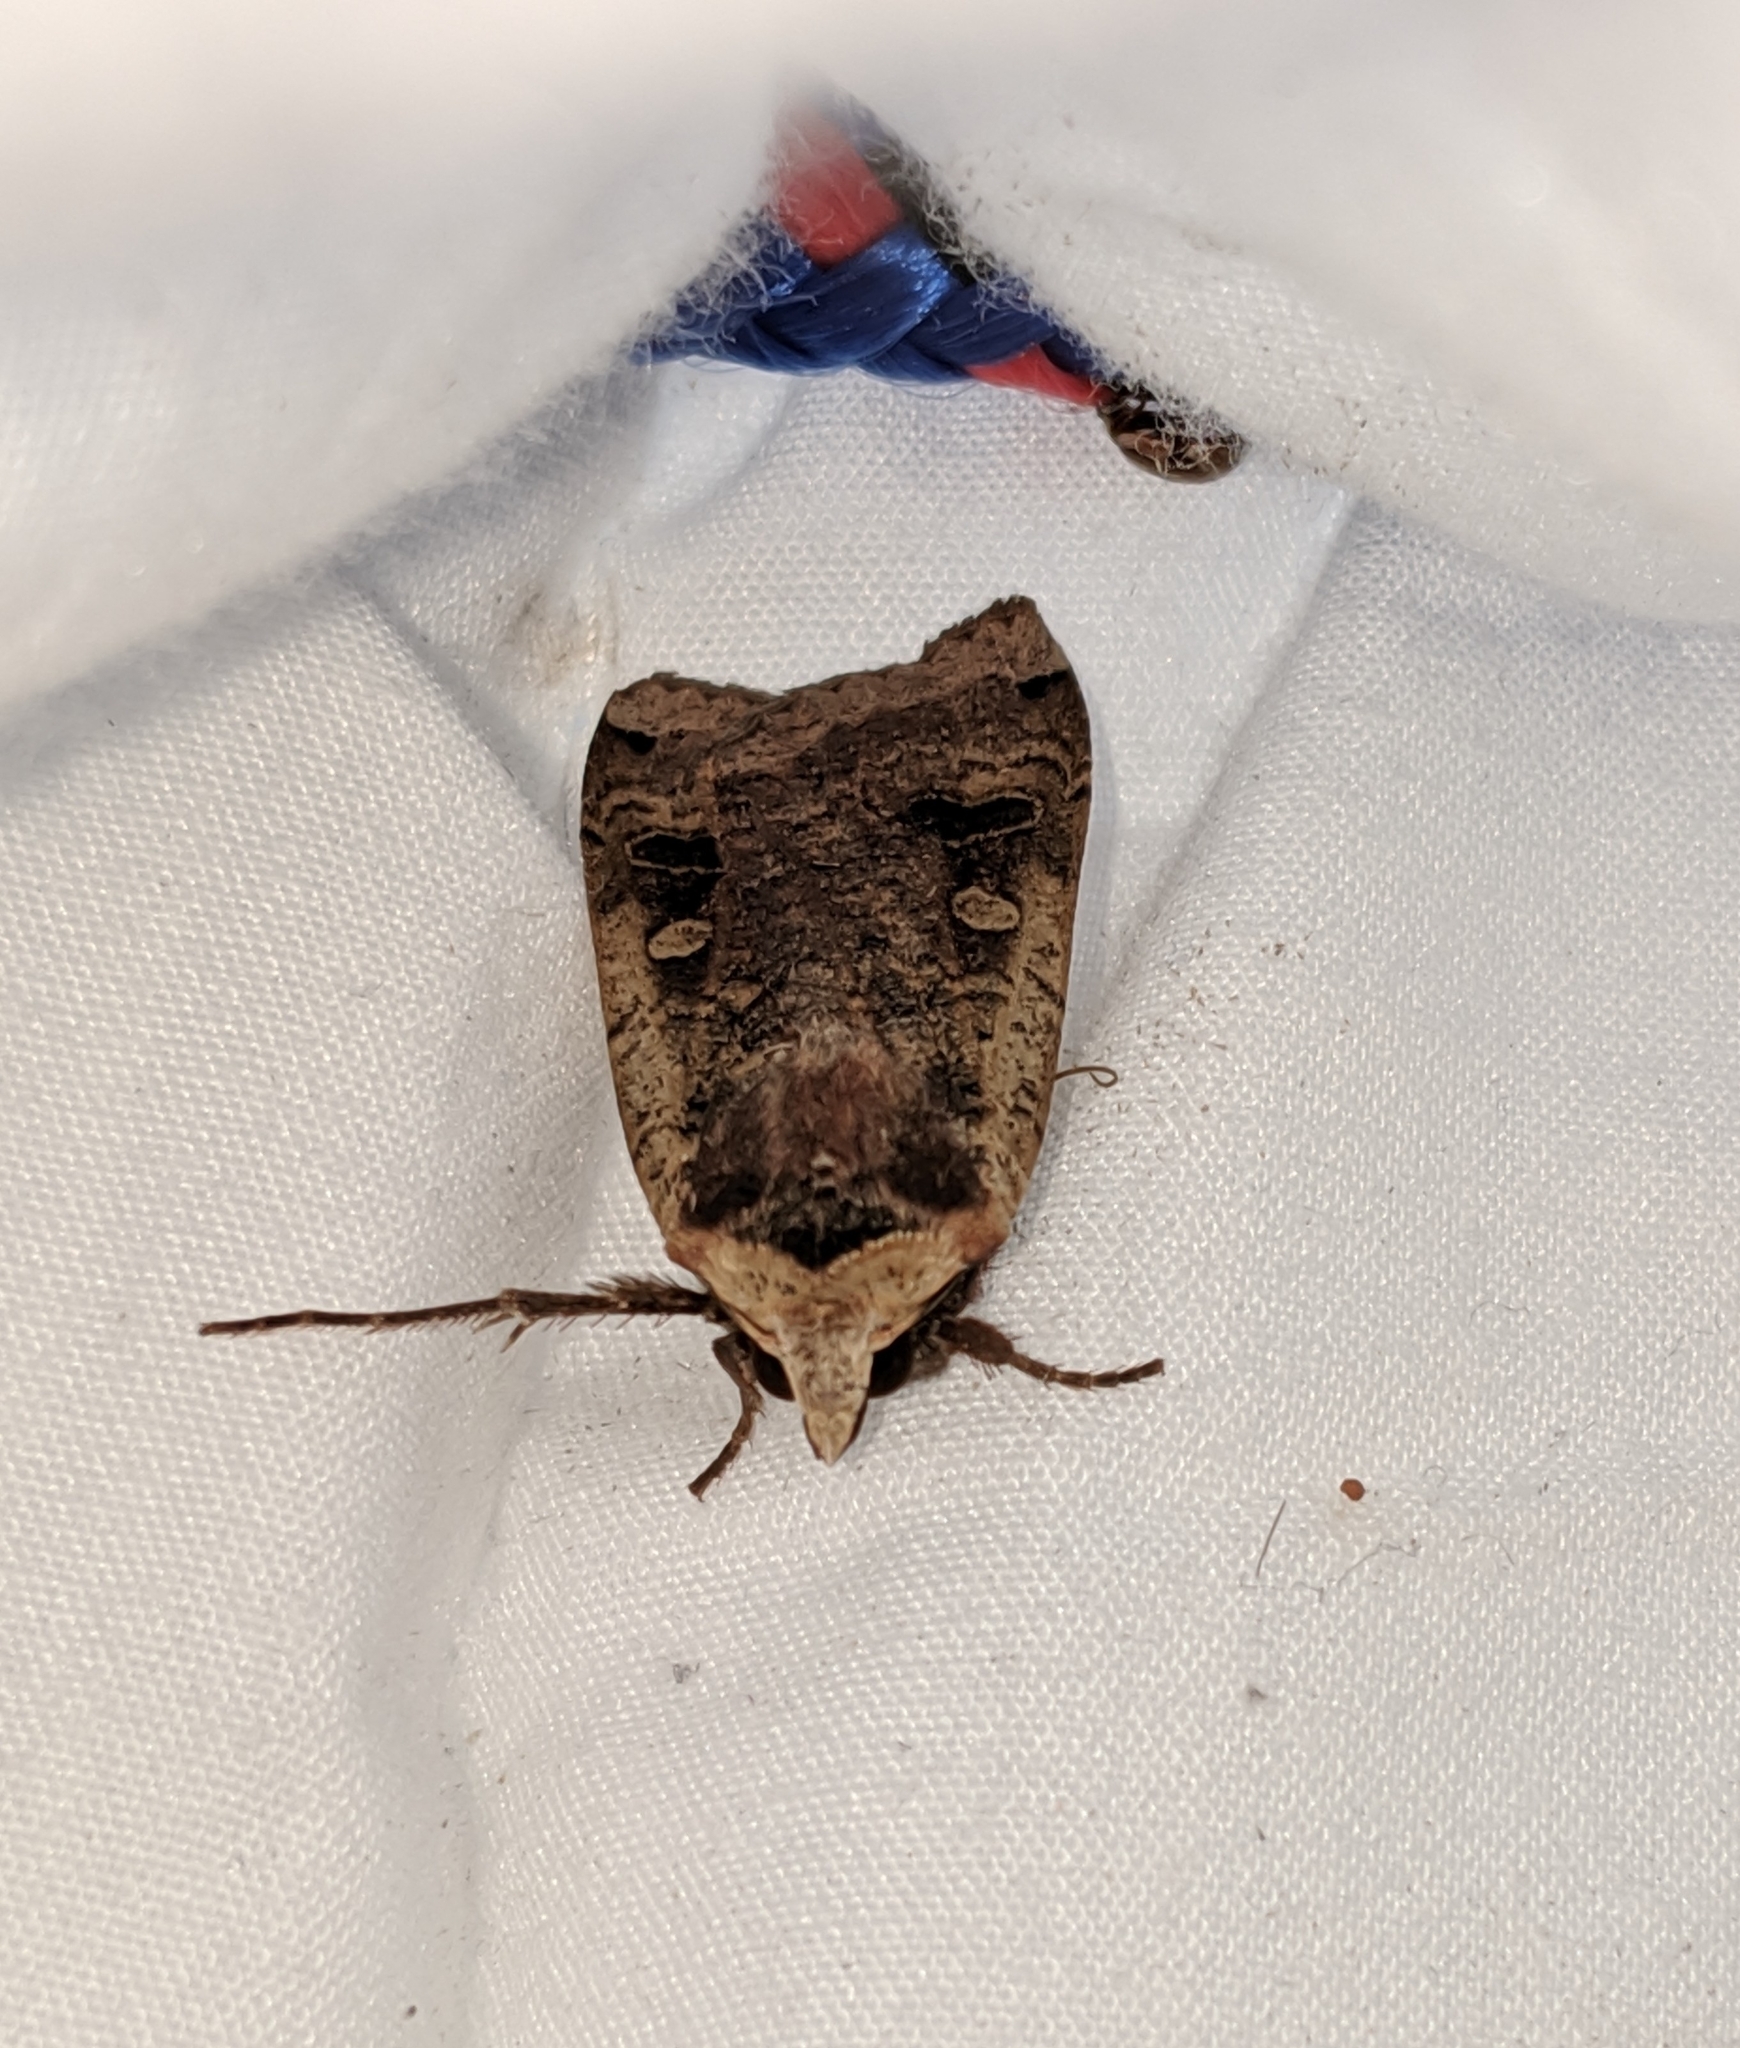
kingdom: Animalia
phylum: Arthropoda
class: Insecta
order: Lepidoptera
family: Noctuidae
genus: Noctua
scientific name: Noctua pronuba
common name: Large yellow underwing
